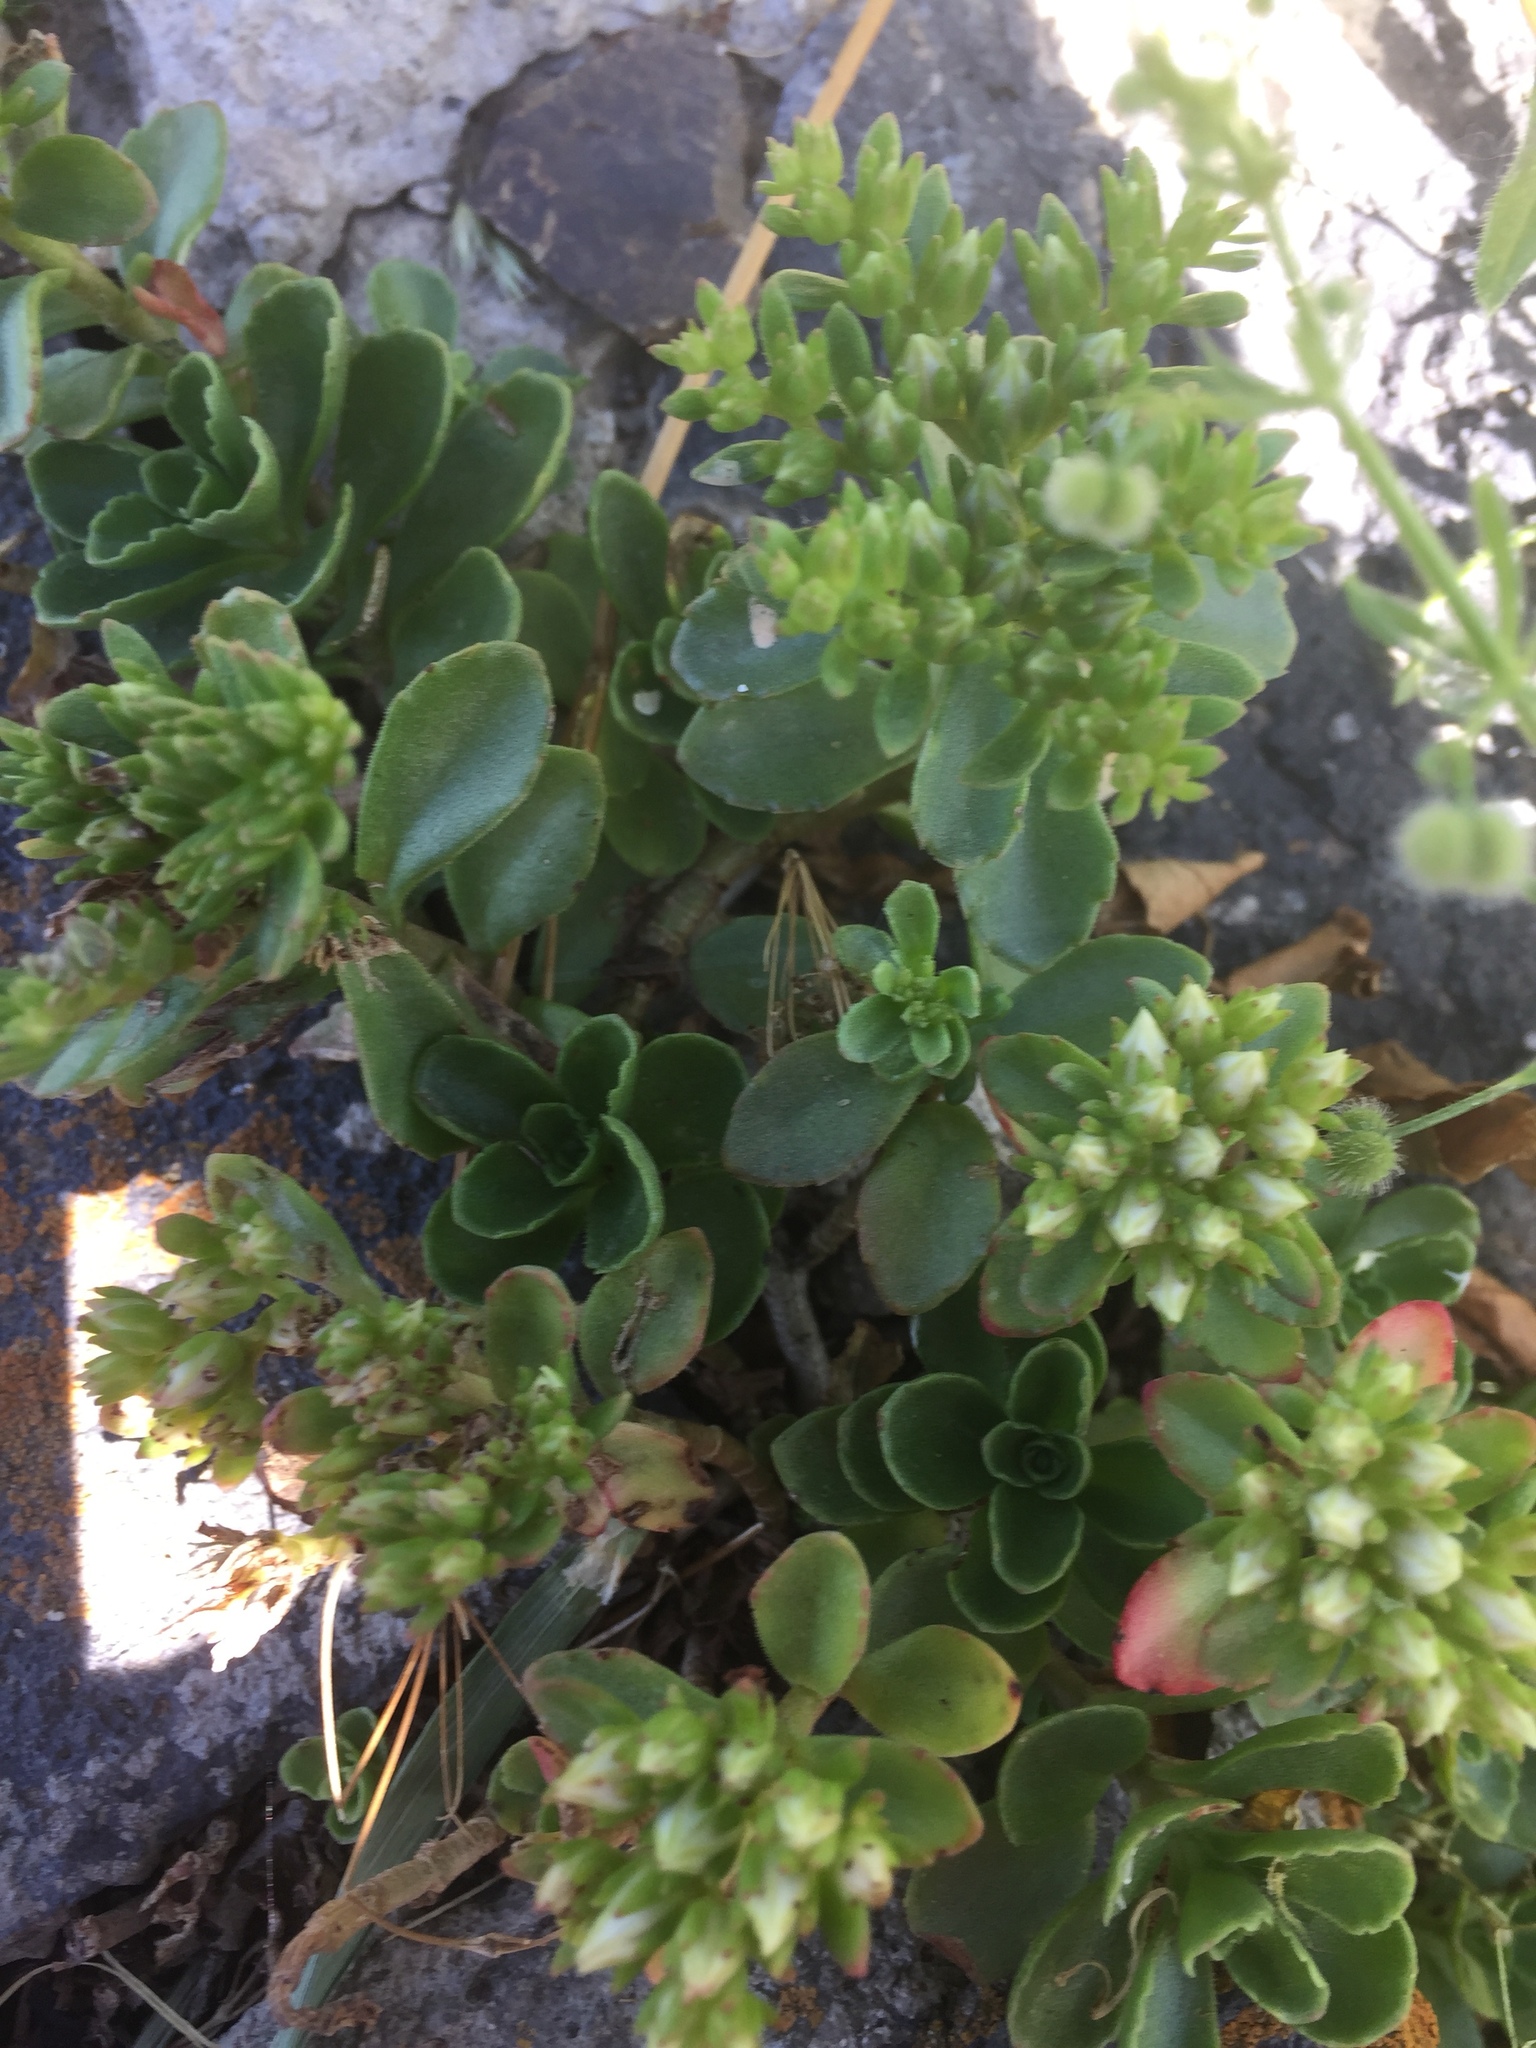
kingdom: Plantae
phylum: Tracheophyta
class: Magnoliopsida
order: Saxifragales
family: Crassulaceae
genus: Phedimus
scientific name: Phedimus spurius
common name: Caucasian stonecrop
